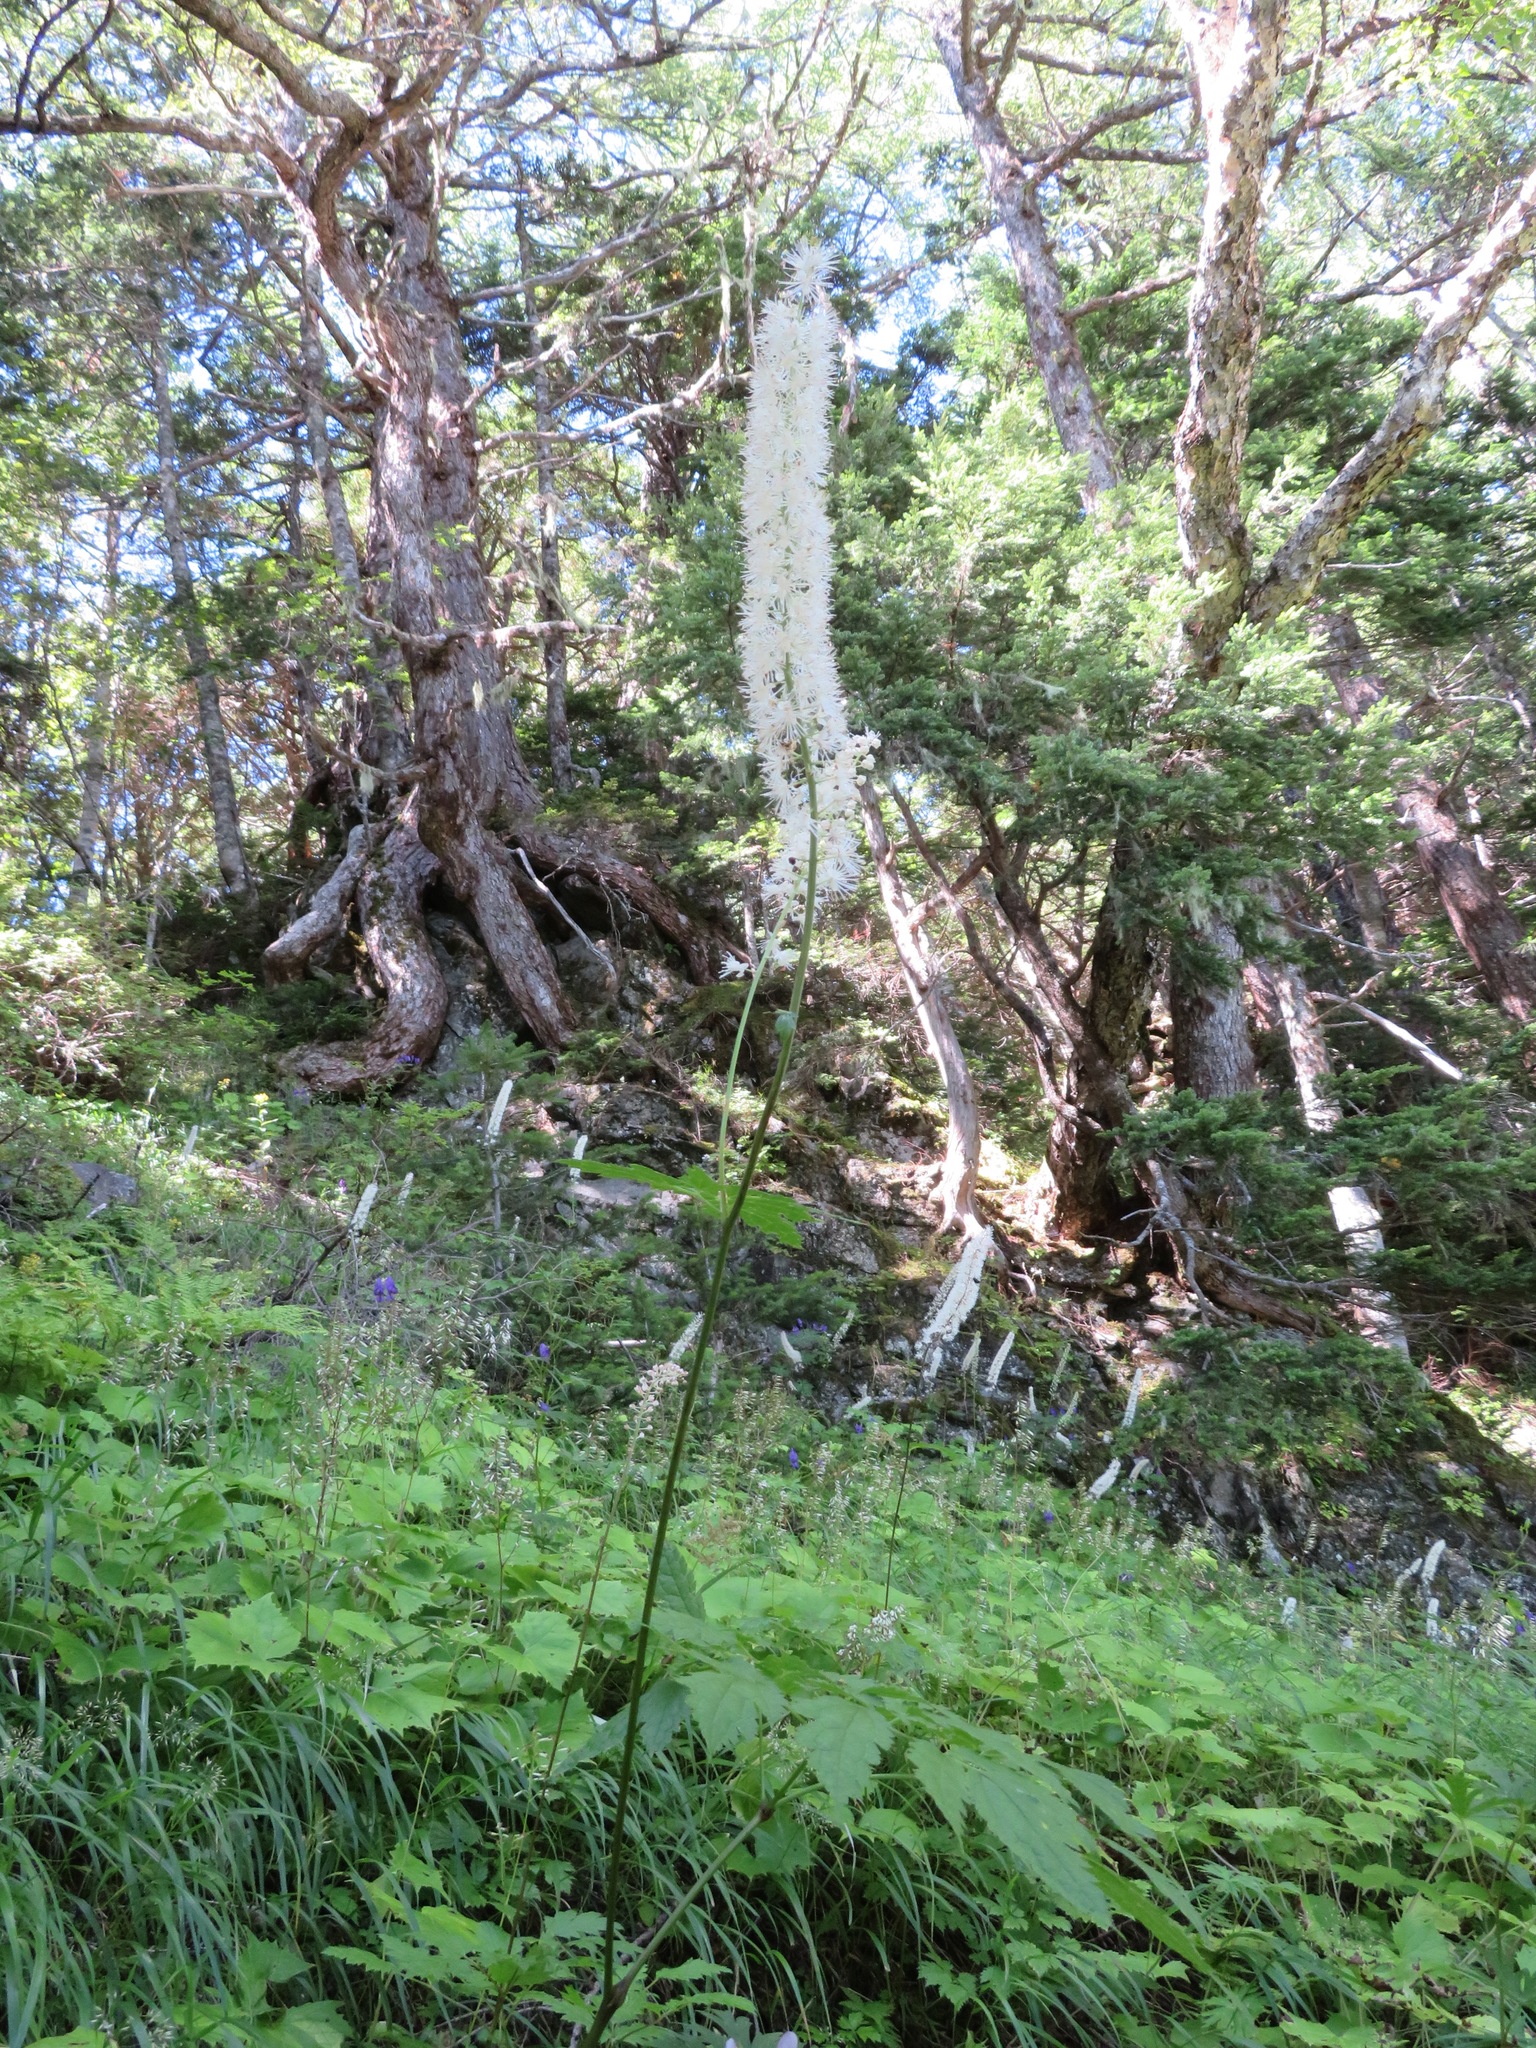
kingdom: Plantae
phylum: Tracheophyta
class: Magnoliopsida
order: Ranunculales
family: Ranunculaceae
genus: Actaea
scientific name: Actaea simplex
